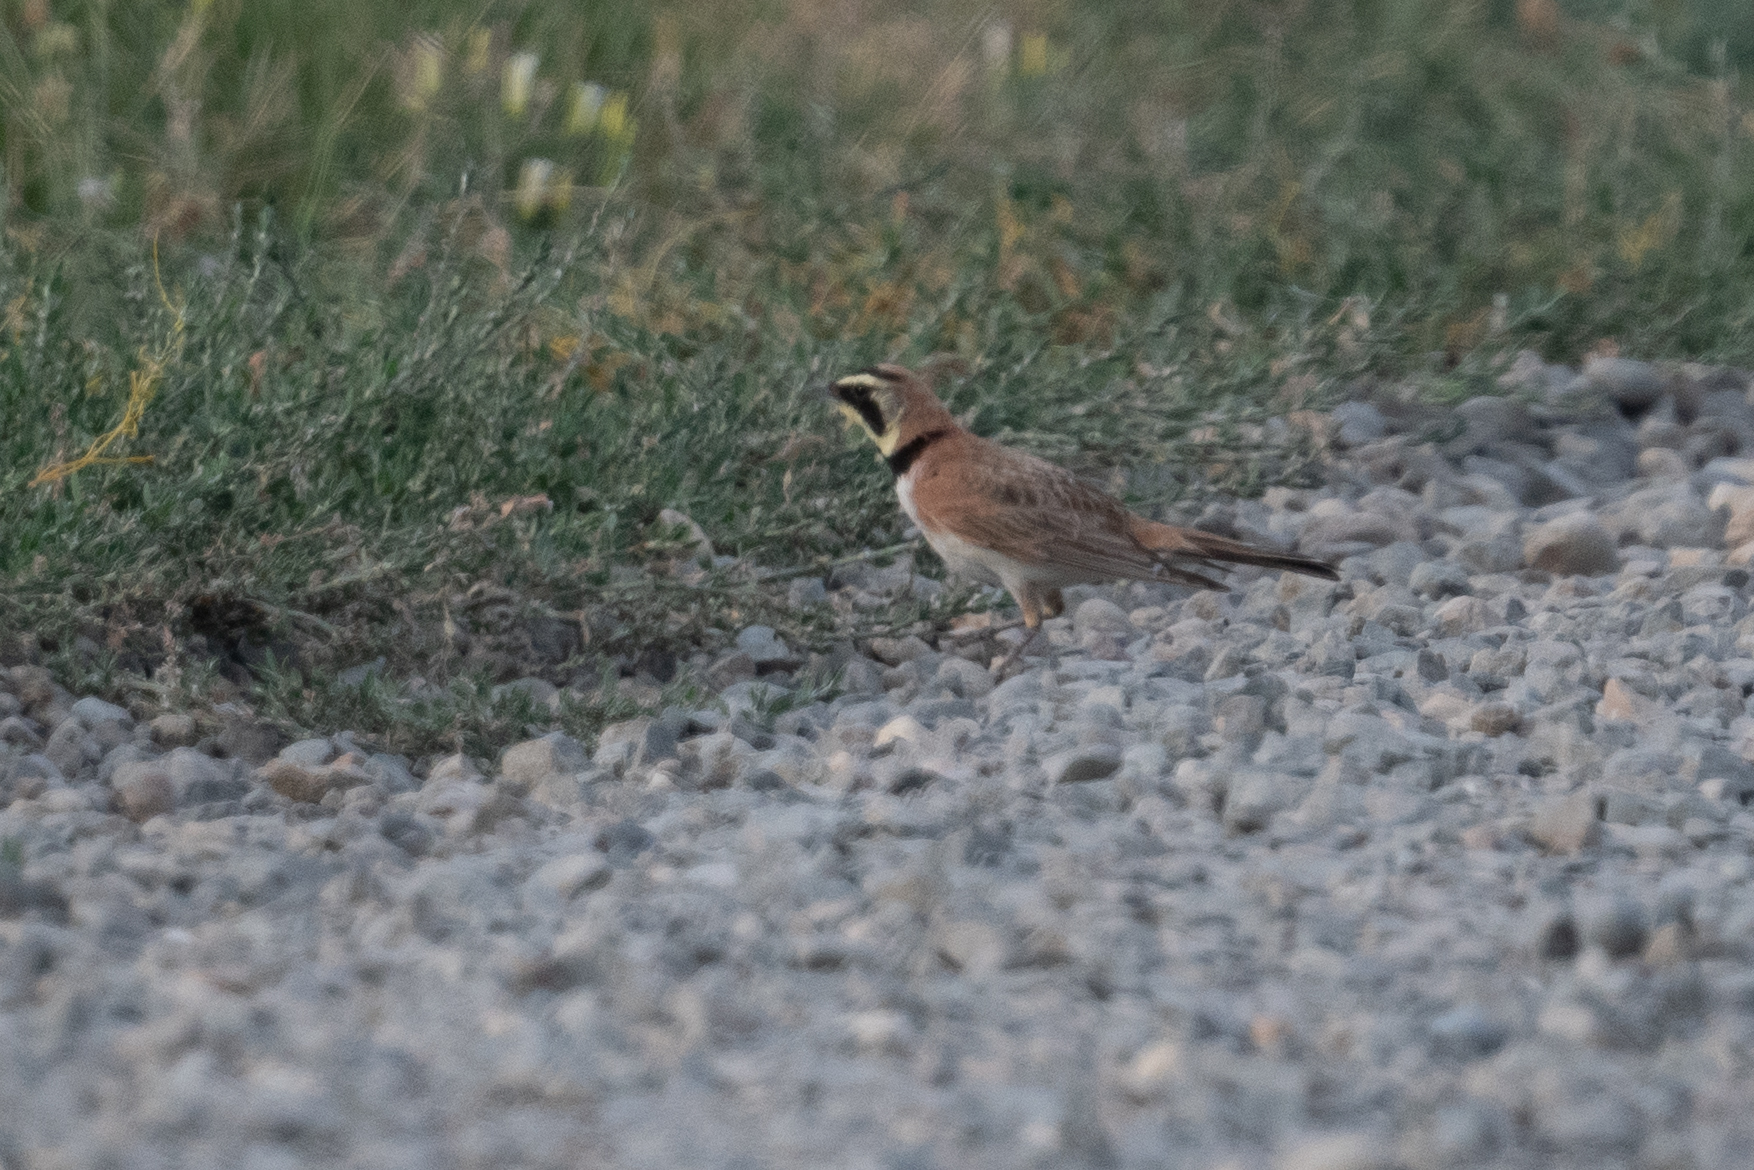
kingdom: Animalia
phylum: Chordata
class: Aves
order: Passeriformes
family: Alaudidae
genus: Eremophila
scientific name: Eremophila alpestris
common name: Horned lark
